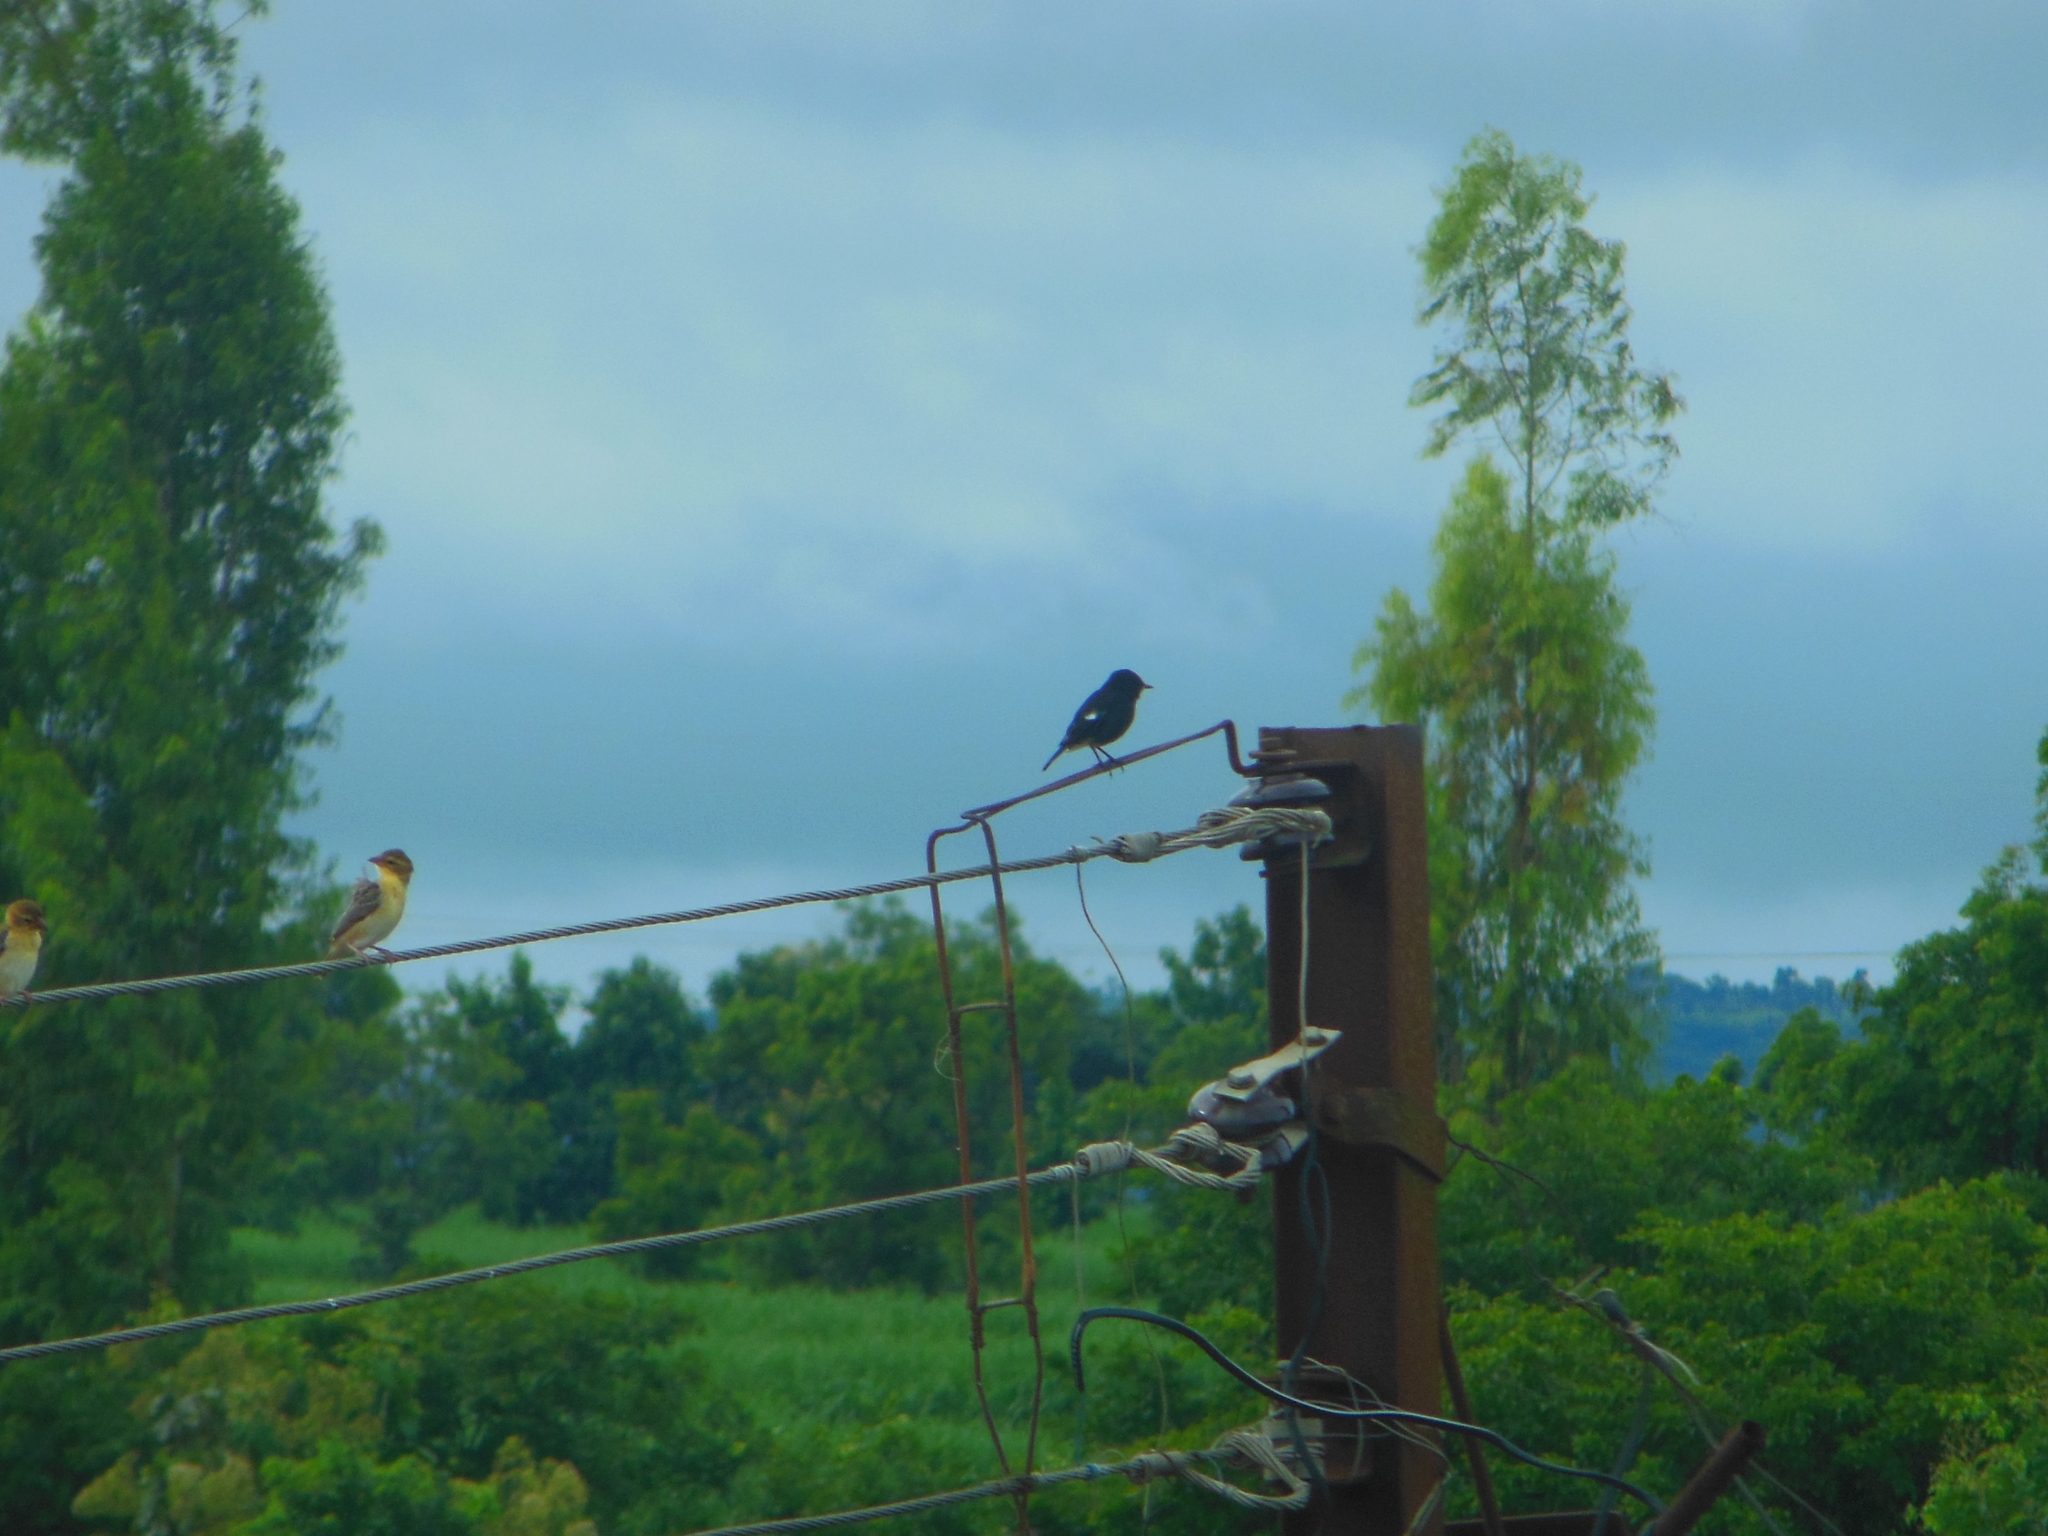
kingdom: Animalia
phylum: Chordata
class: Aves
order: Passeriformes
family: Muscicapidae
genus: Saxicola
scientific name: Saxicola caprata
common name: Pied bush chat
